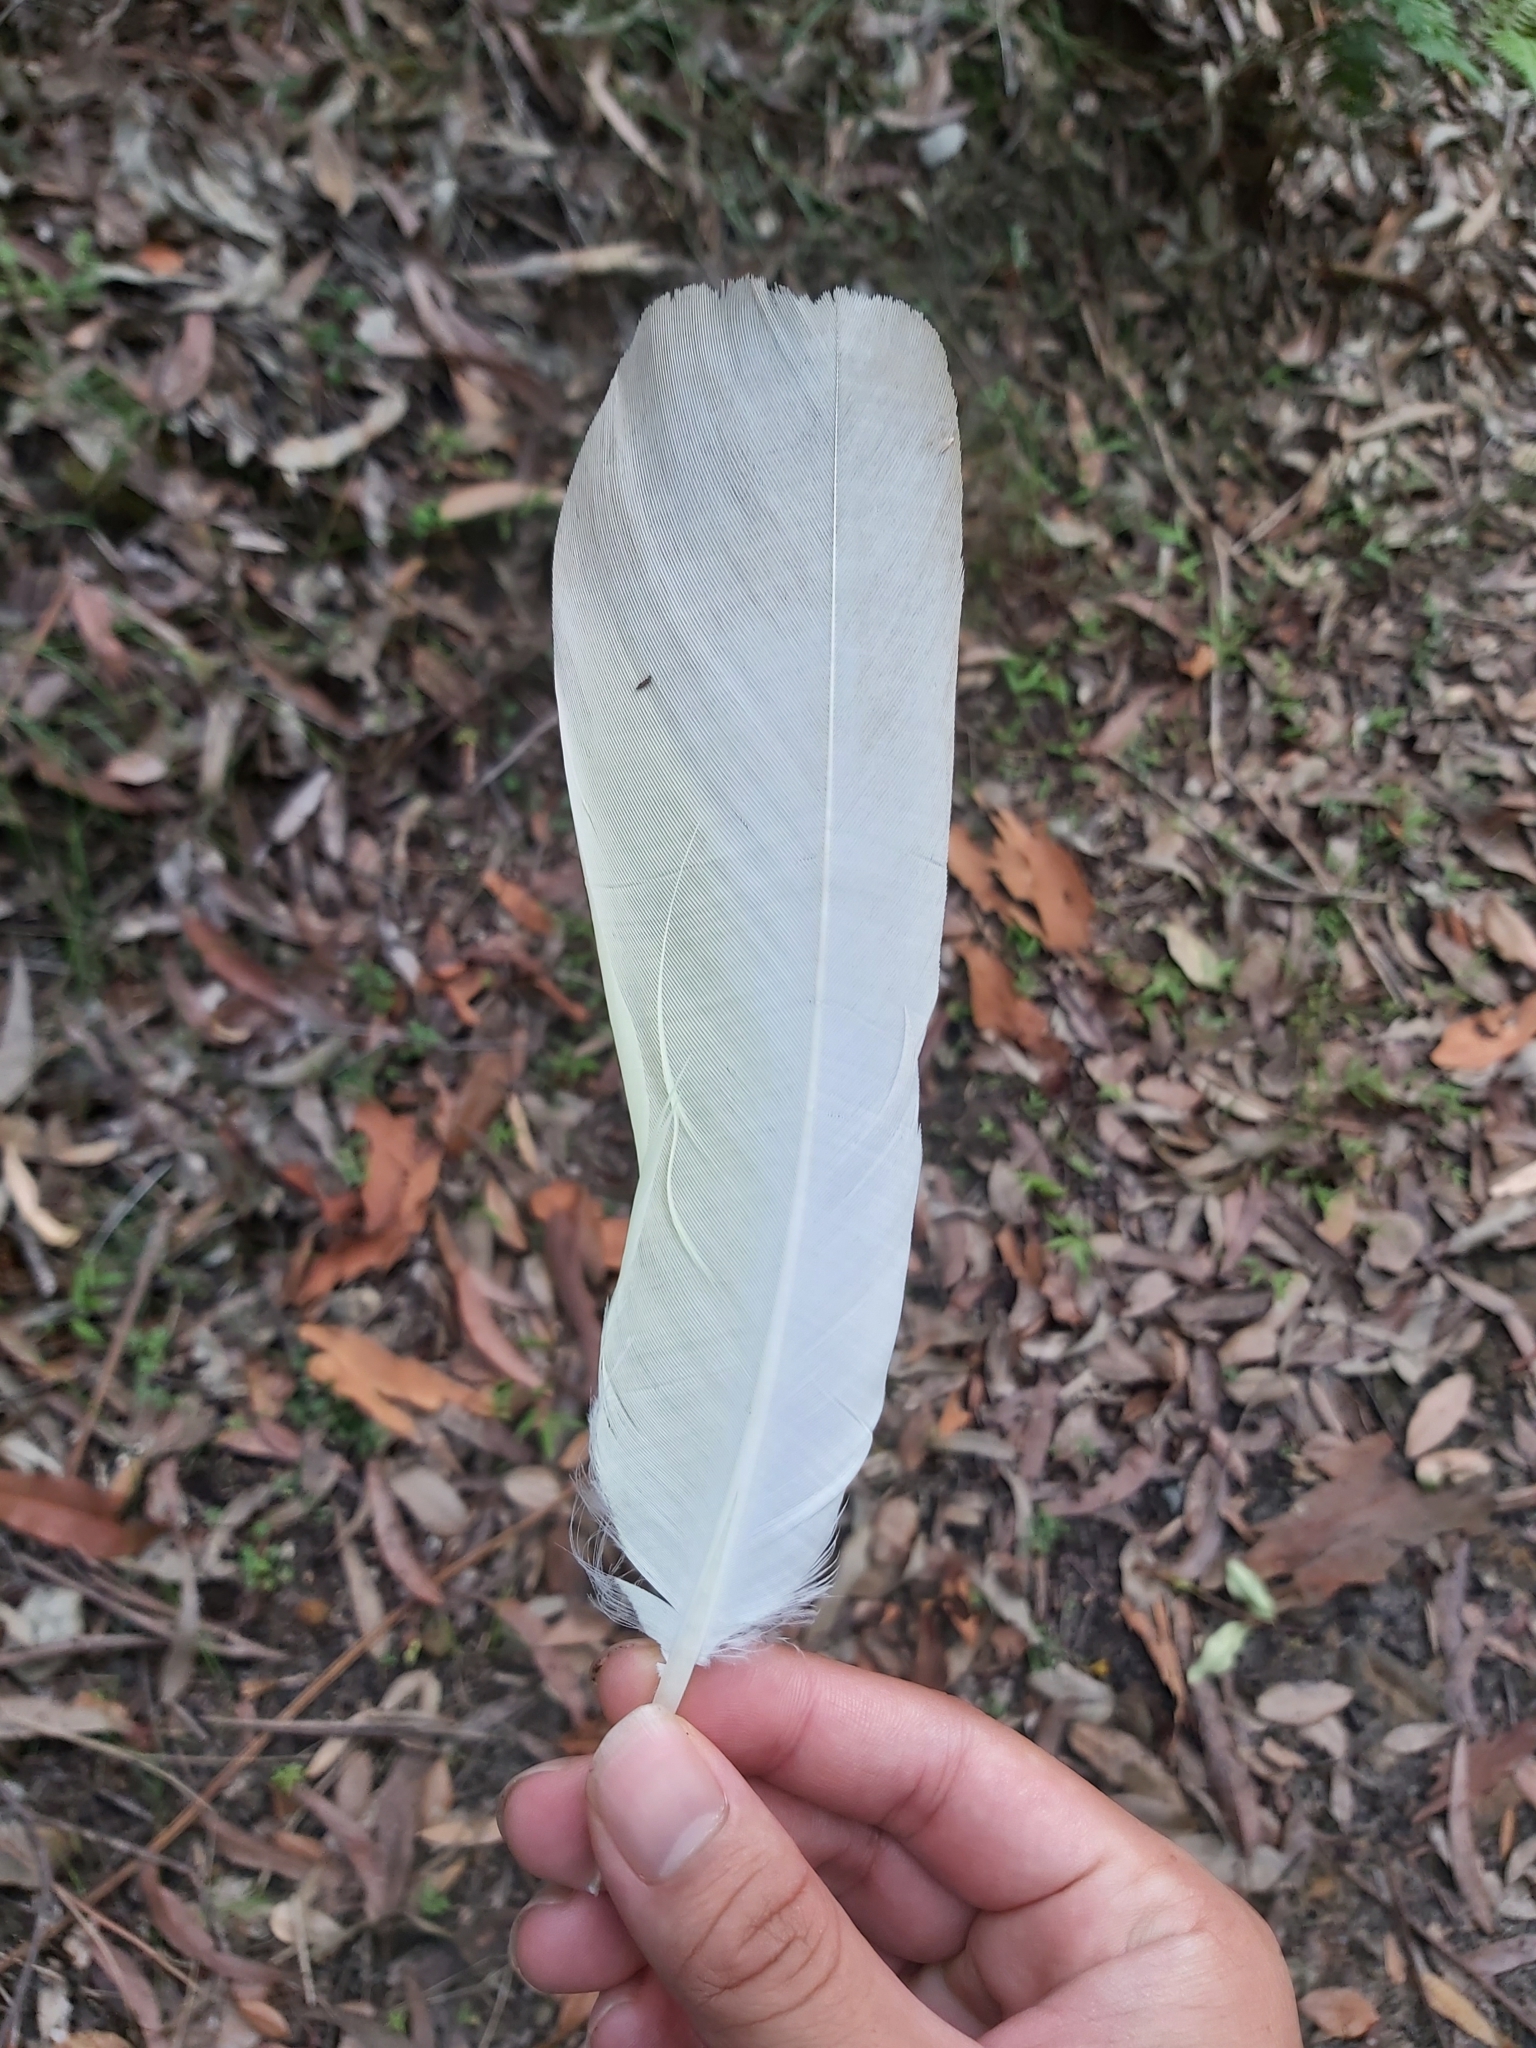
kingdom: Animalia
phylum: Chordata
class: Aves
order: Psittaciformes
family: Psittacidae
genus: Cacatua
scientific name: Cacatua galerita
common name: Sulphur-crested cockatoo
